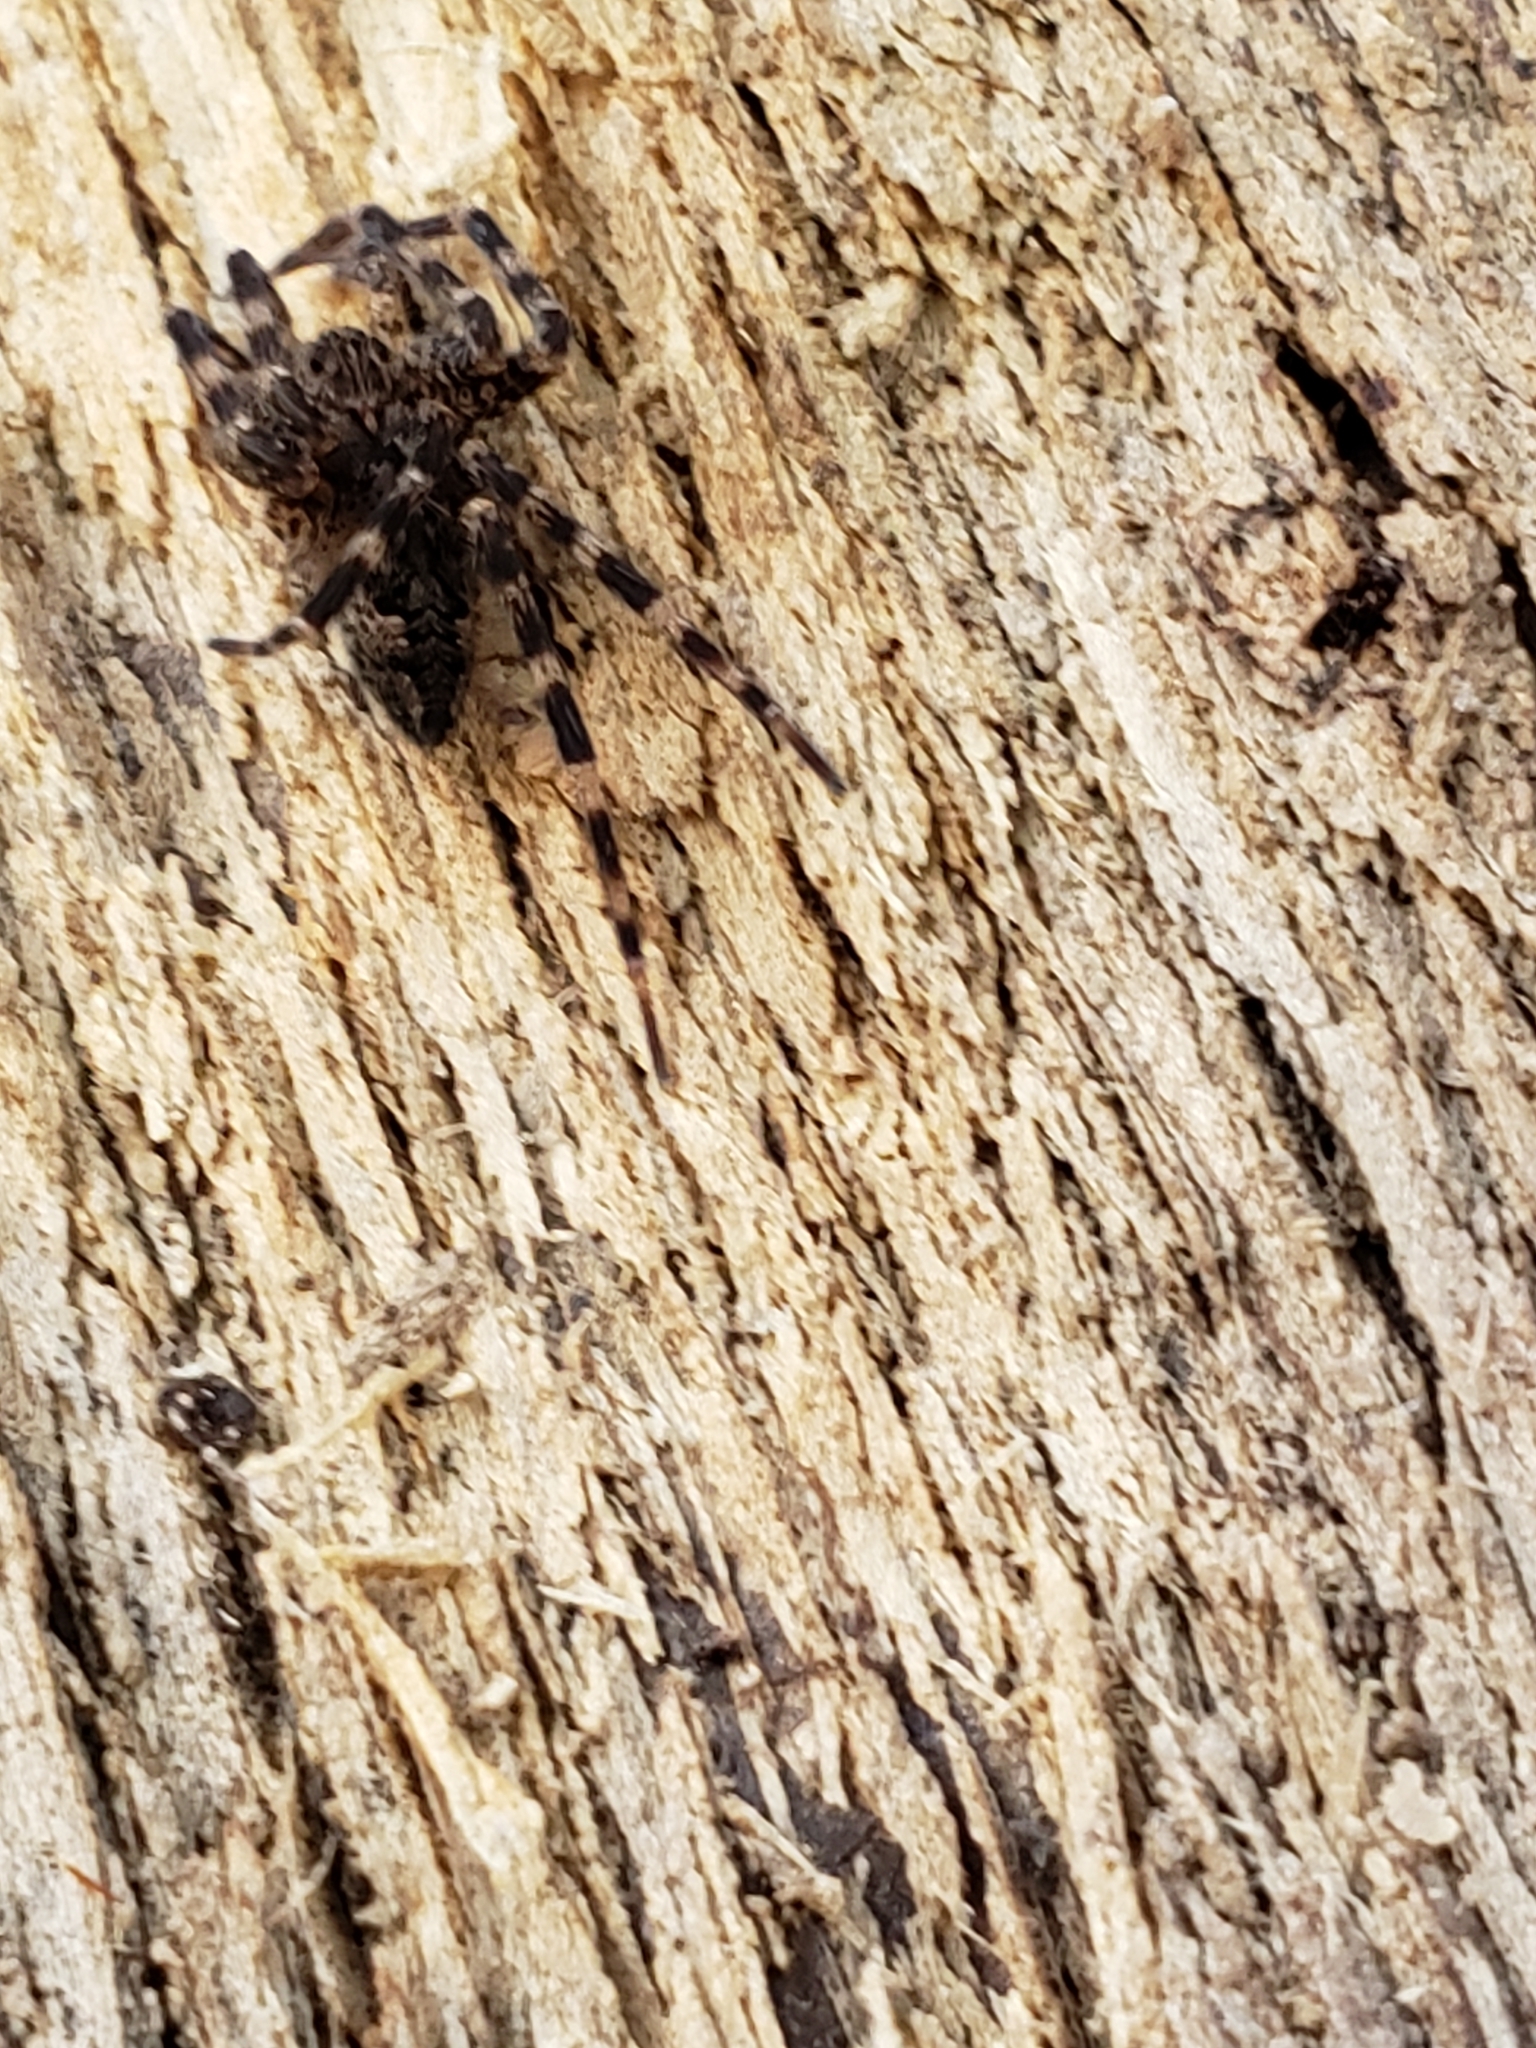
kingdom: Animalia
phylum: Arthropoda
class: Arachnida
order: Araneae
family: Pisauridae
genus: Dolomedes
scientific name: Dolomedes tenebrosus
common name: Dark fishing spider
